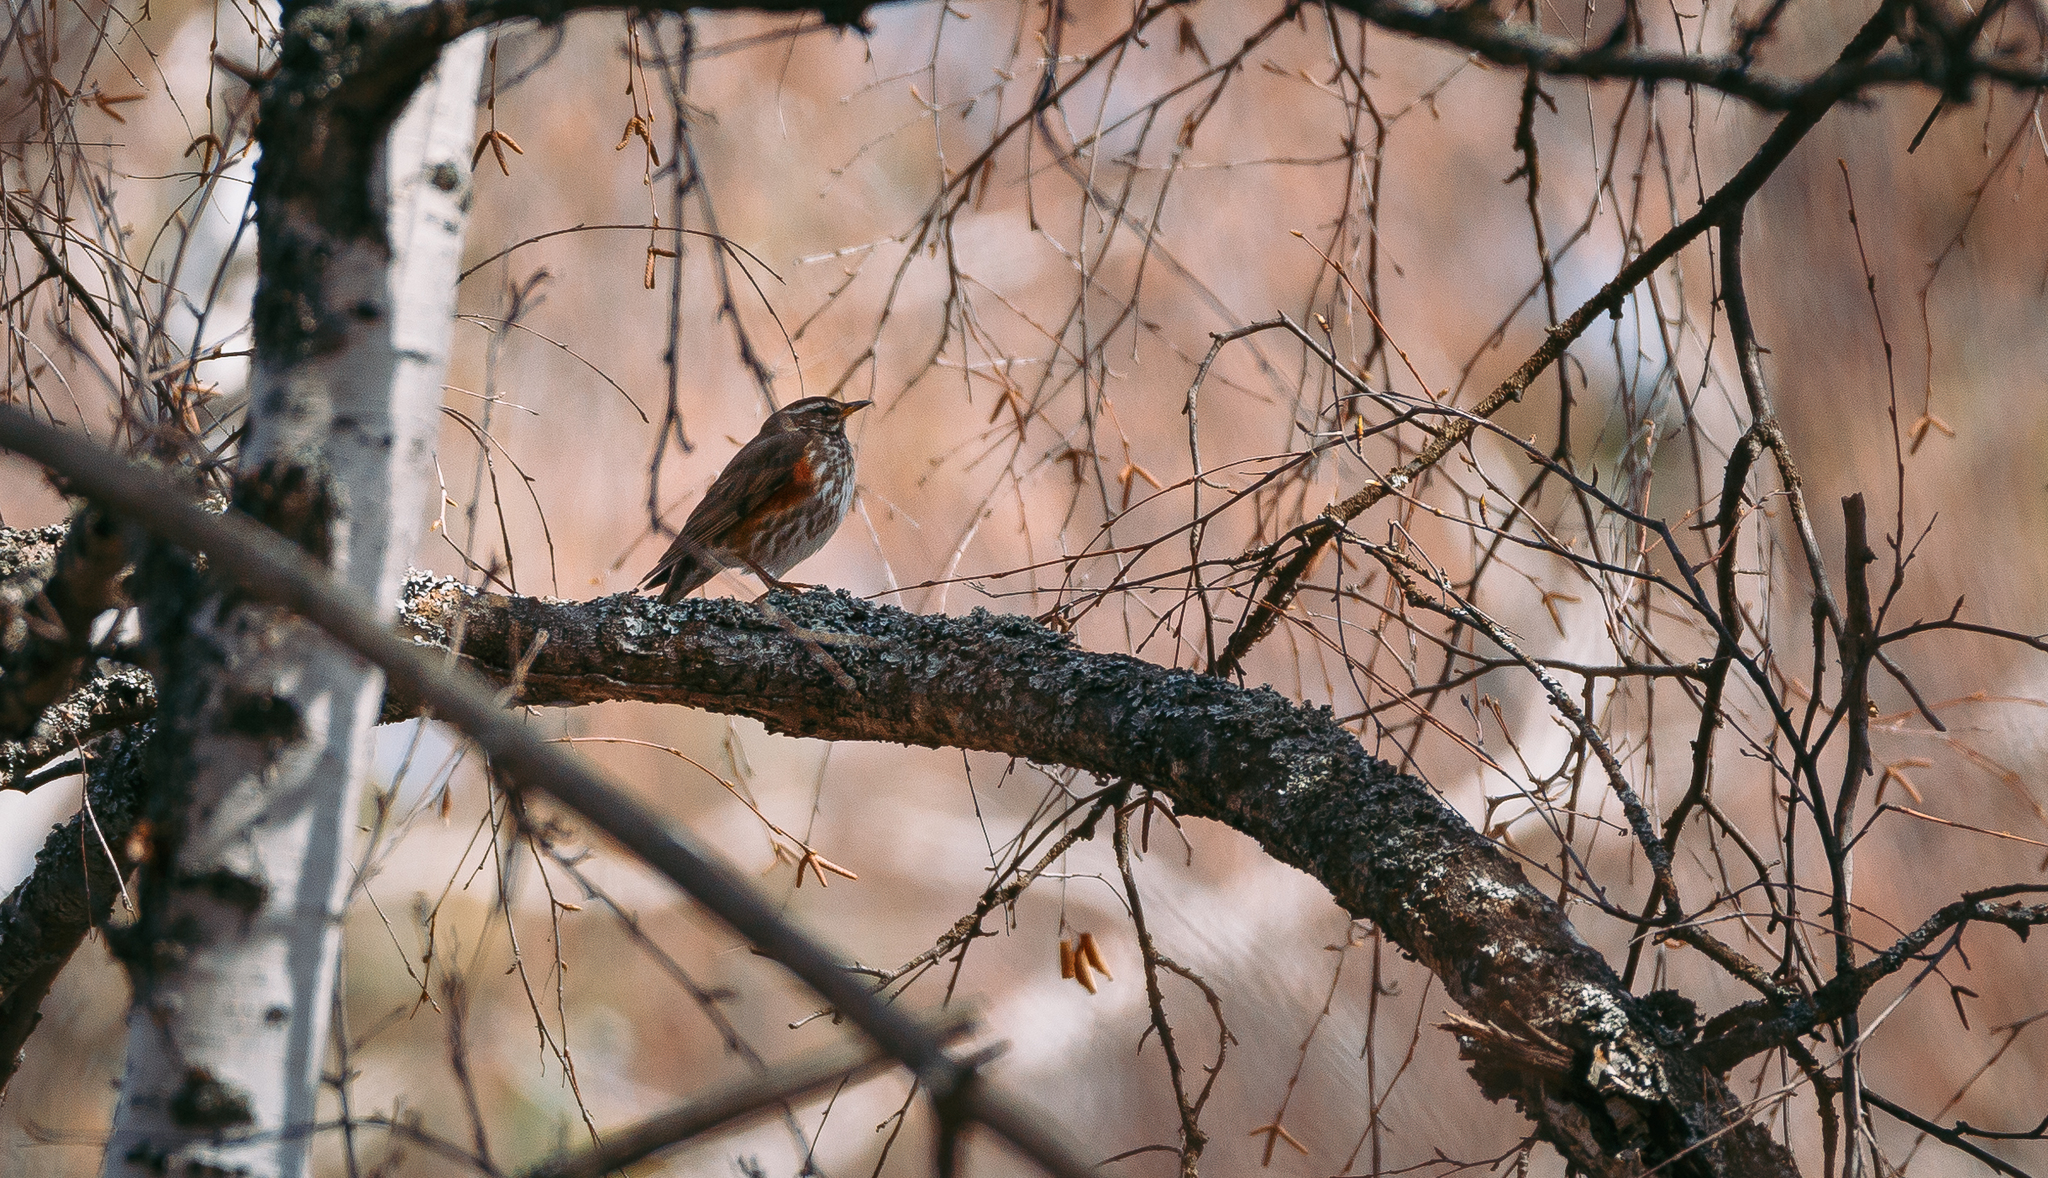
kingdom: Animalia
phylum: Chordata
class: Aves
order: Passeriformes
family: Turdidae
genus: Turdus
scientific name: Turdus iliacus
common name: Redwing
